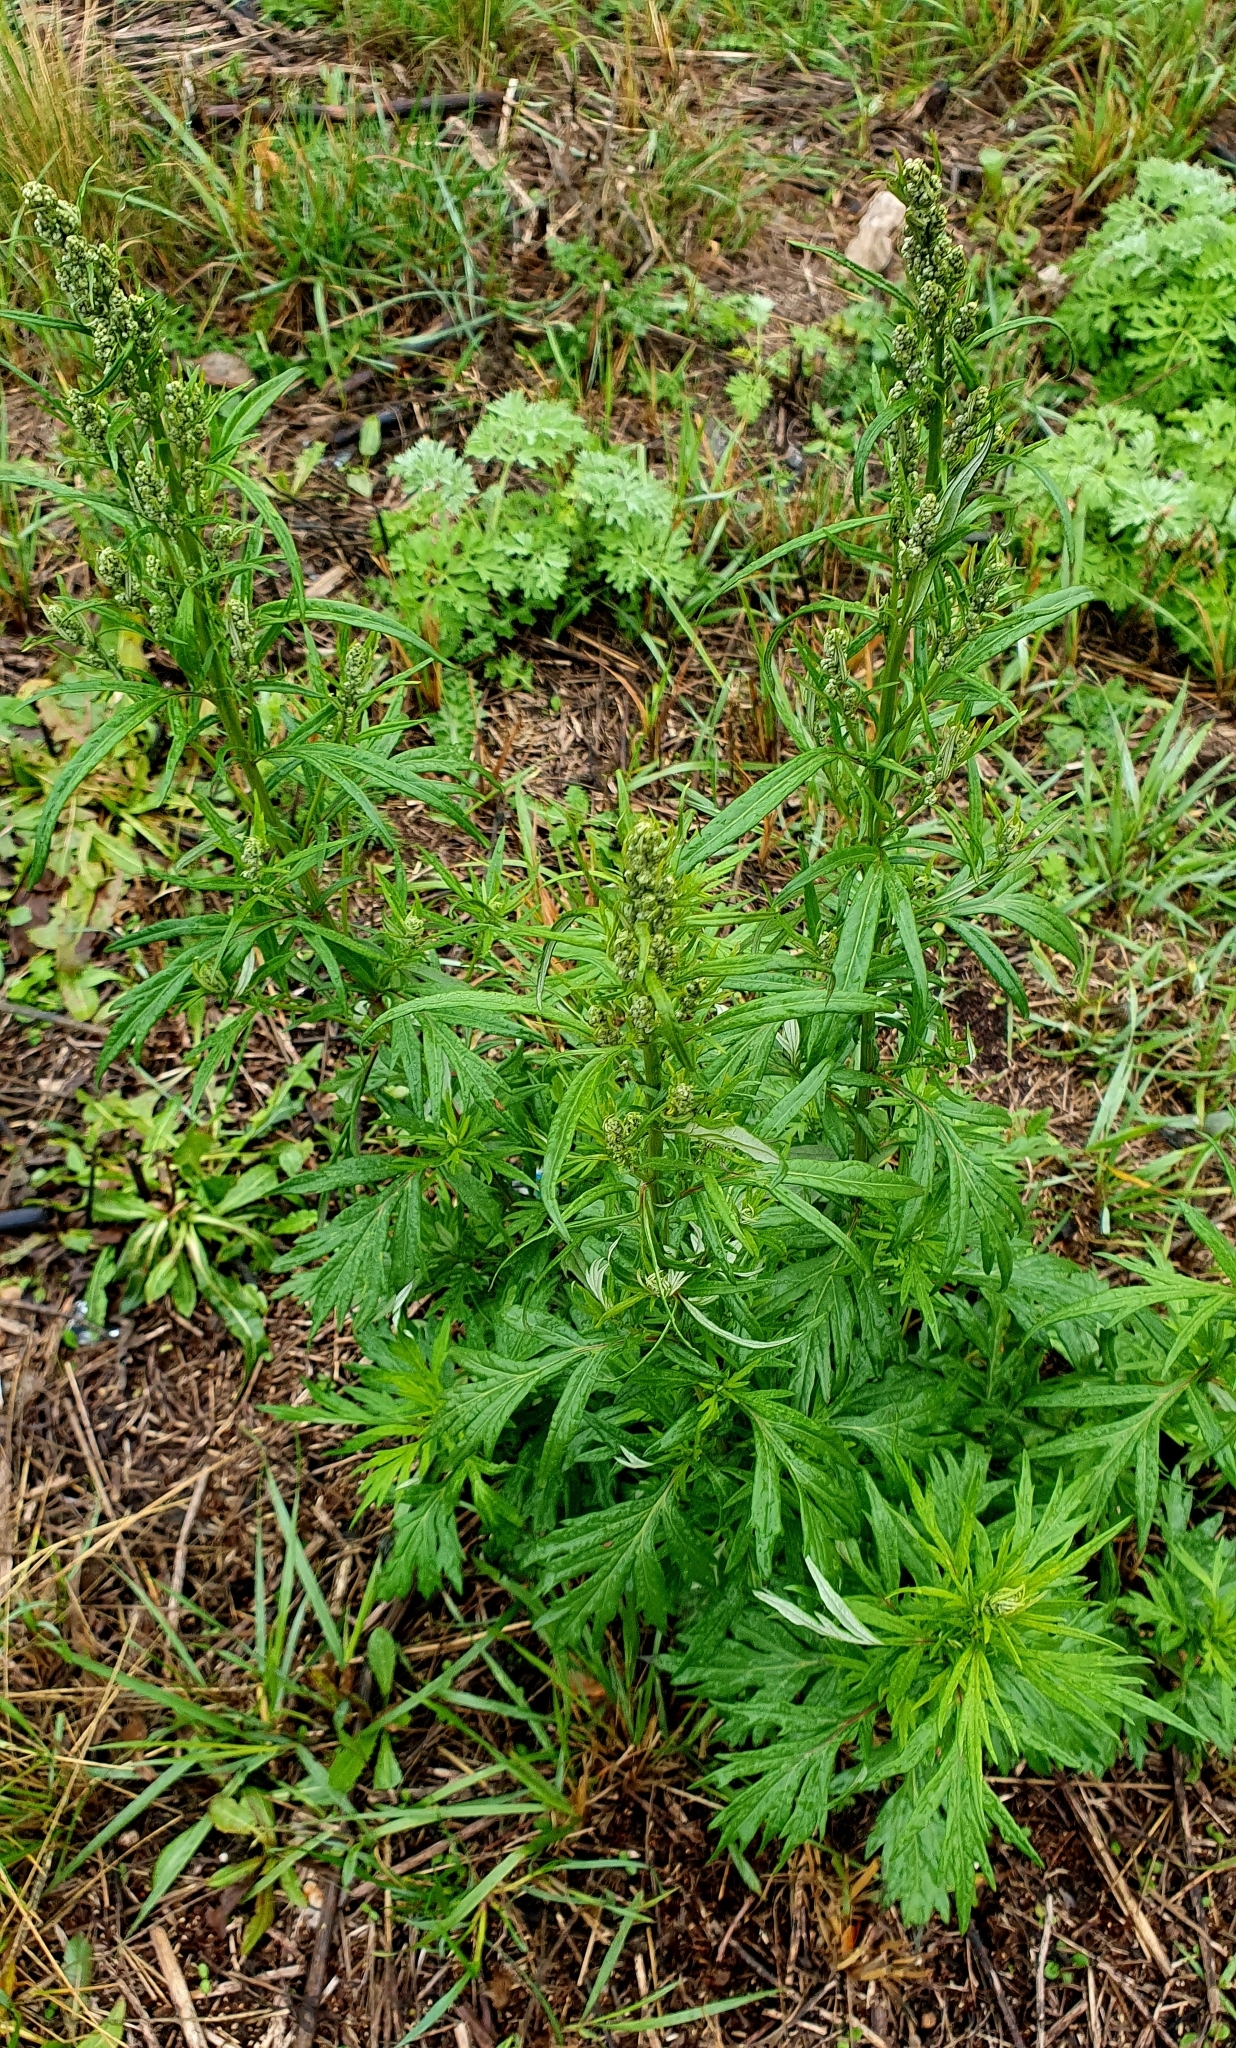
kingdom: Plantae
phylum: Tracheophyta
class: Magnoliopsida
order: Asterales
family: Asteraceae
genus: Artemisia
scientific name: Artemisia vulgaris
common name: Mugwort
